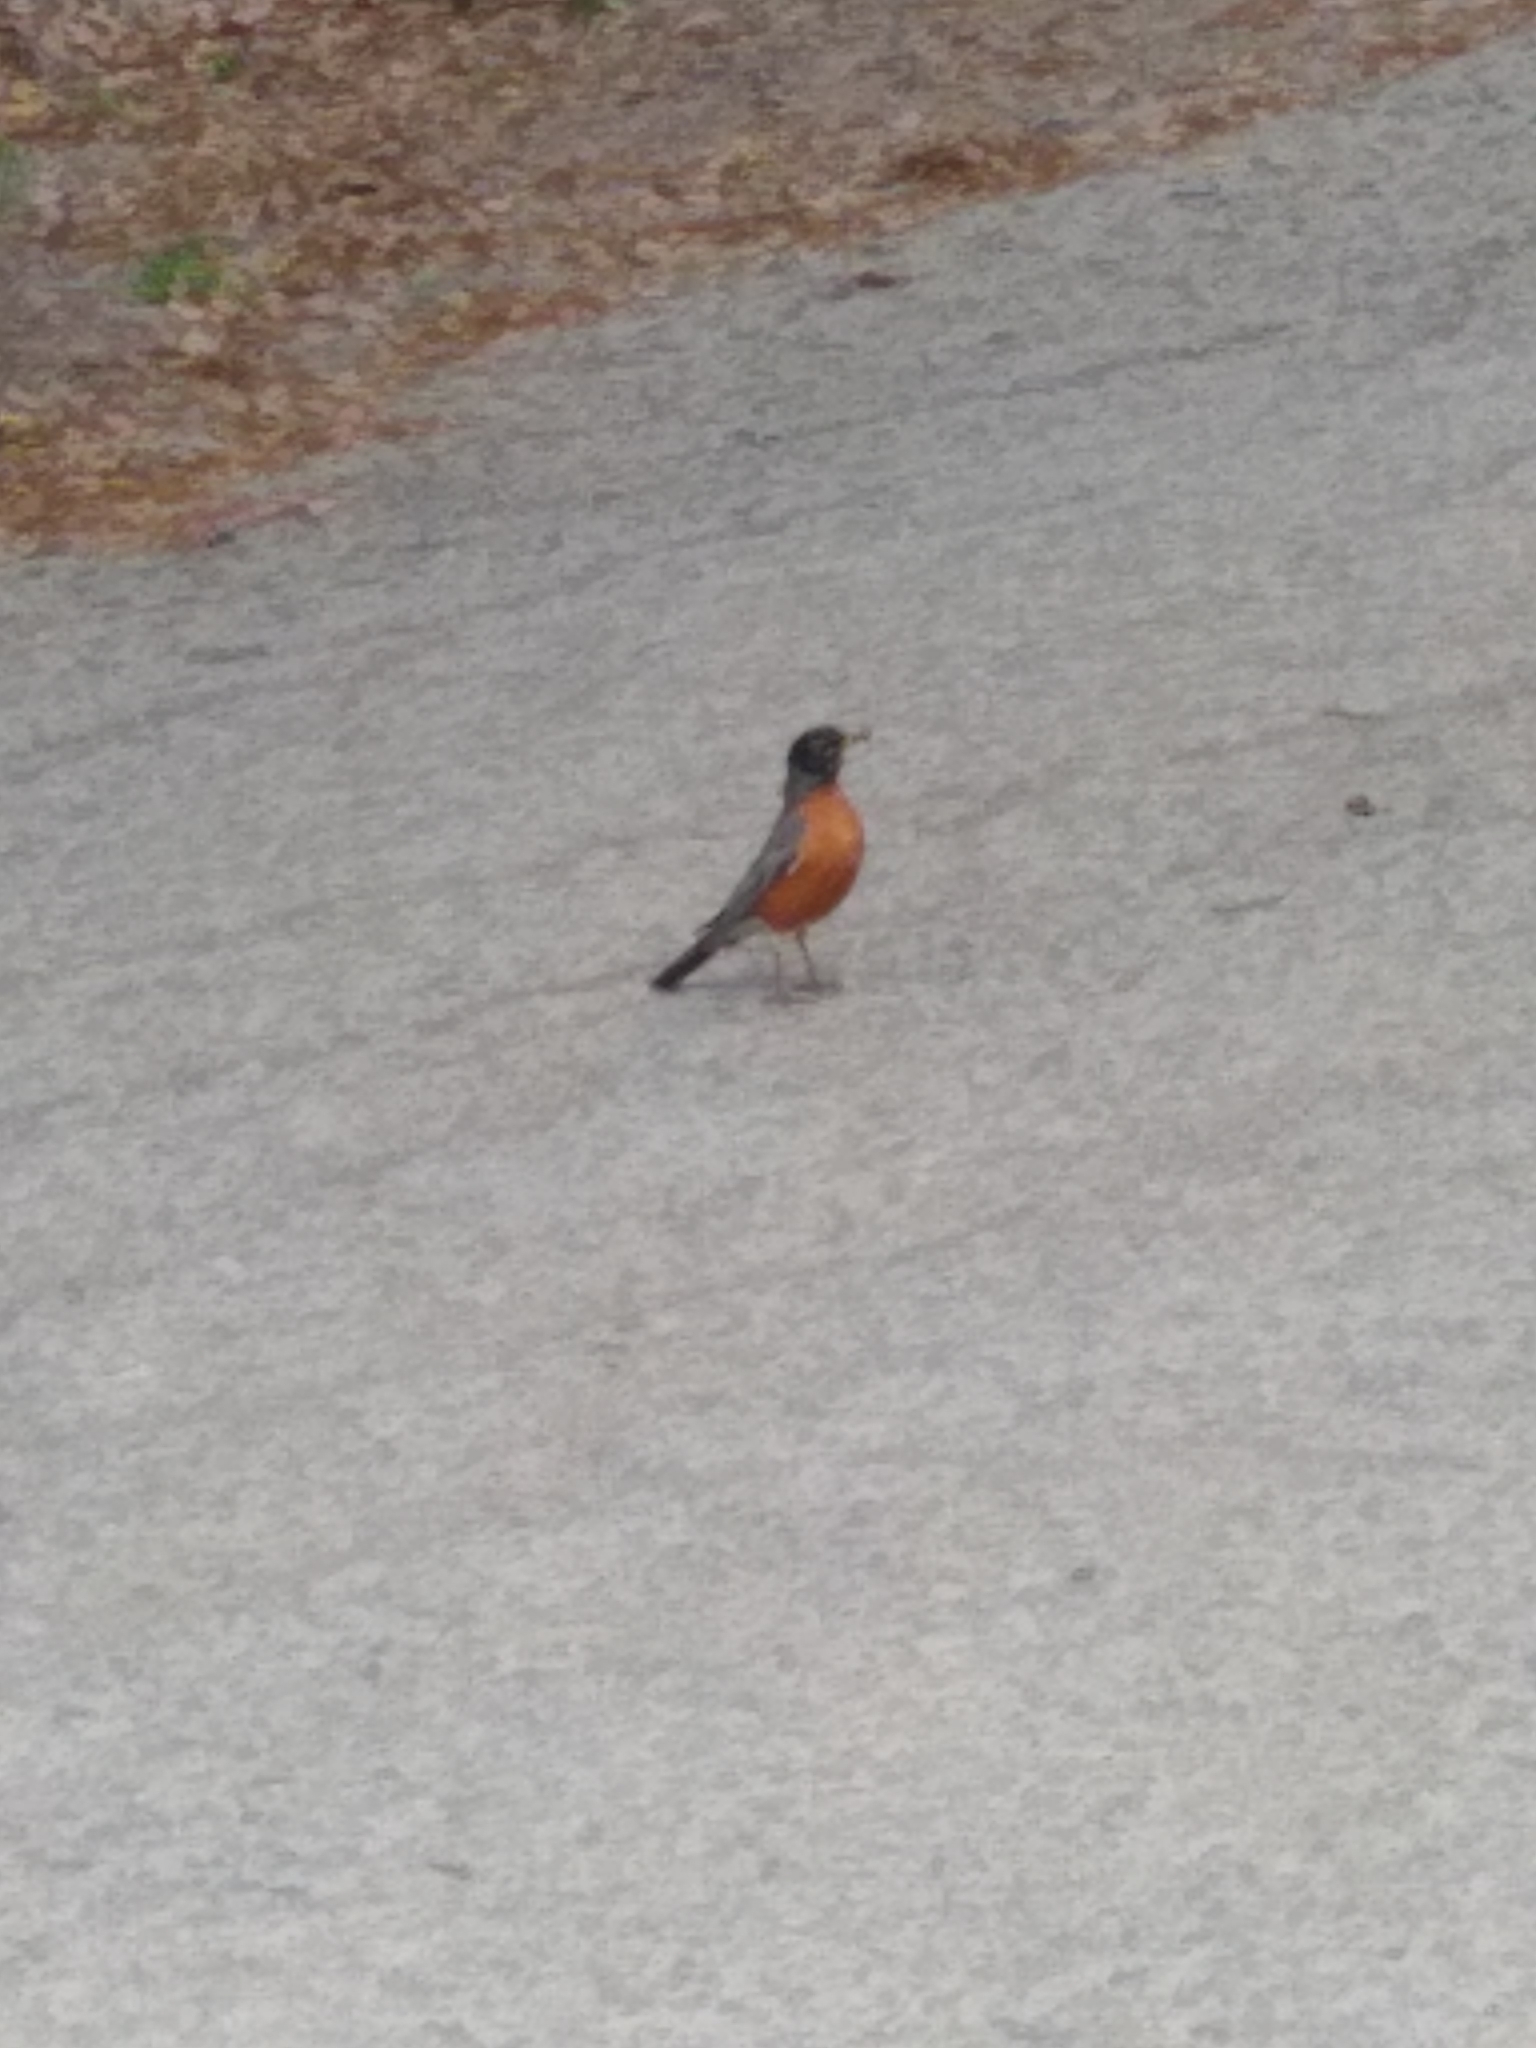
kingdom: Animalia
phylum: Chordata
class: Aves
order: Passeriformes
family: Turdidae
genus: Turdus
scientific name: Turdus migratorius
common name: American robin
